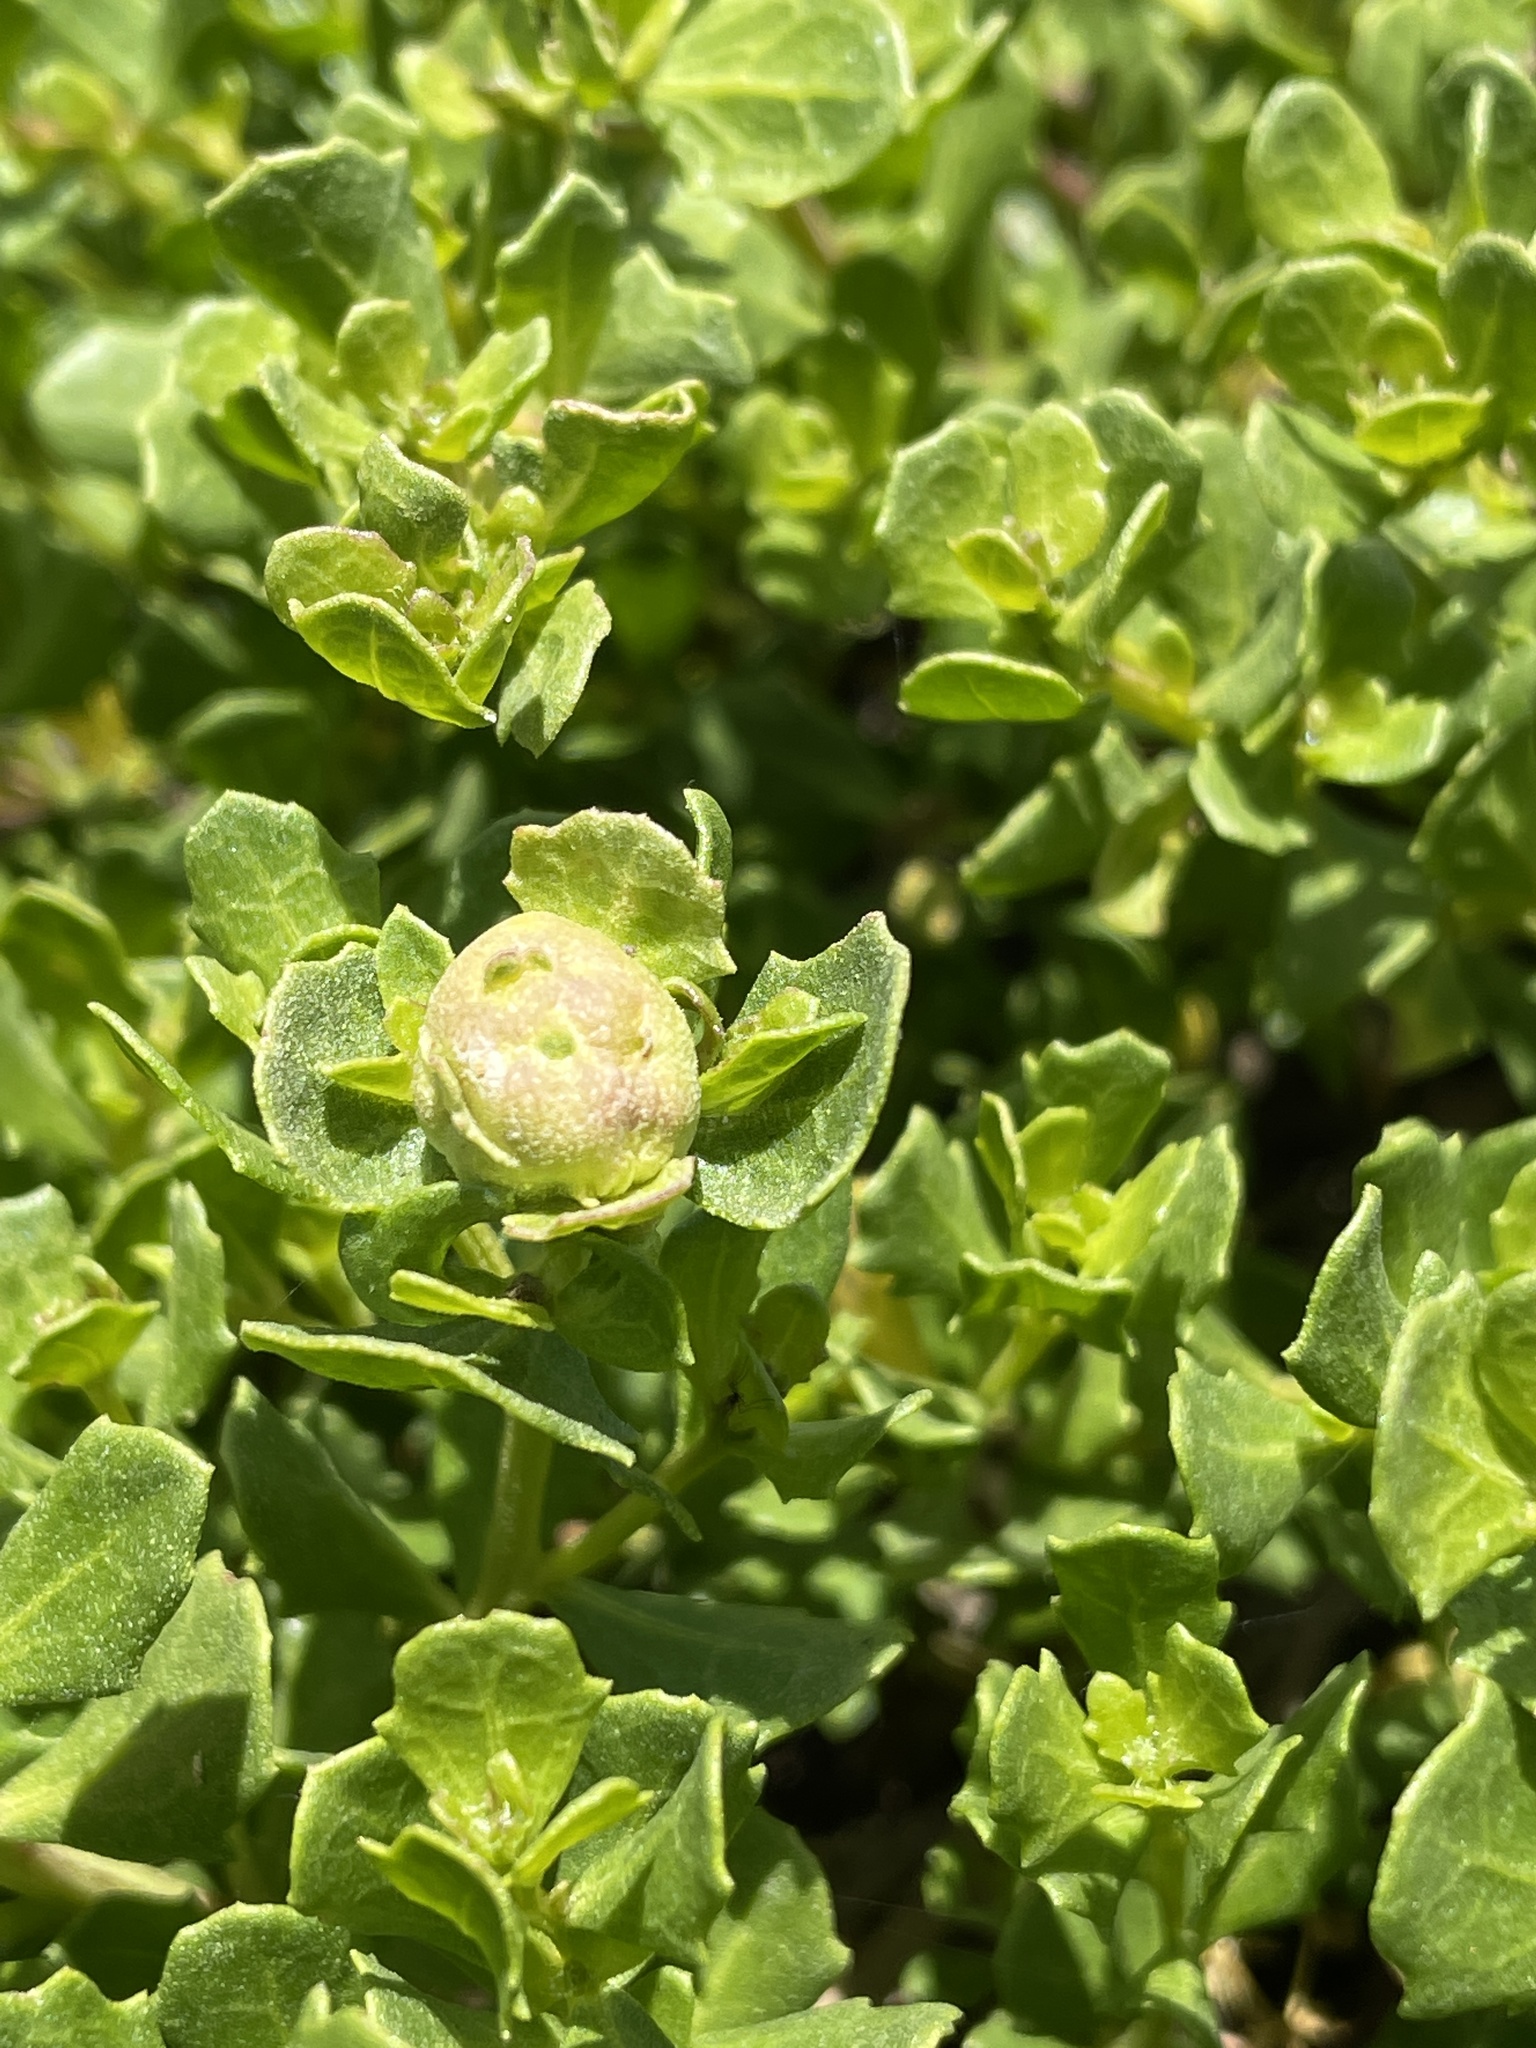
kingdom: Animalia
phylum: Arthropoda
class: Insecta
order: Diptera
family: Cecidomyiidae
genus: Rhopalomyia
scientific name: Rhopalomyia californica
